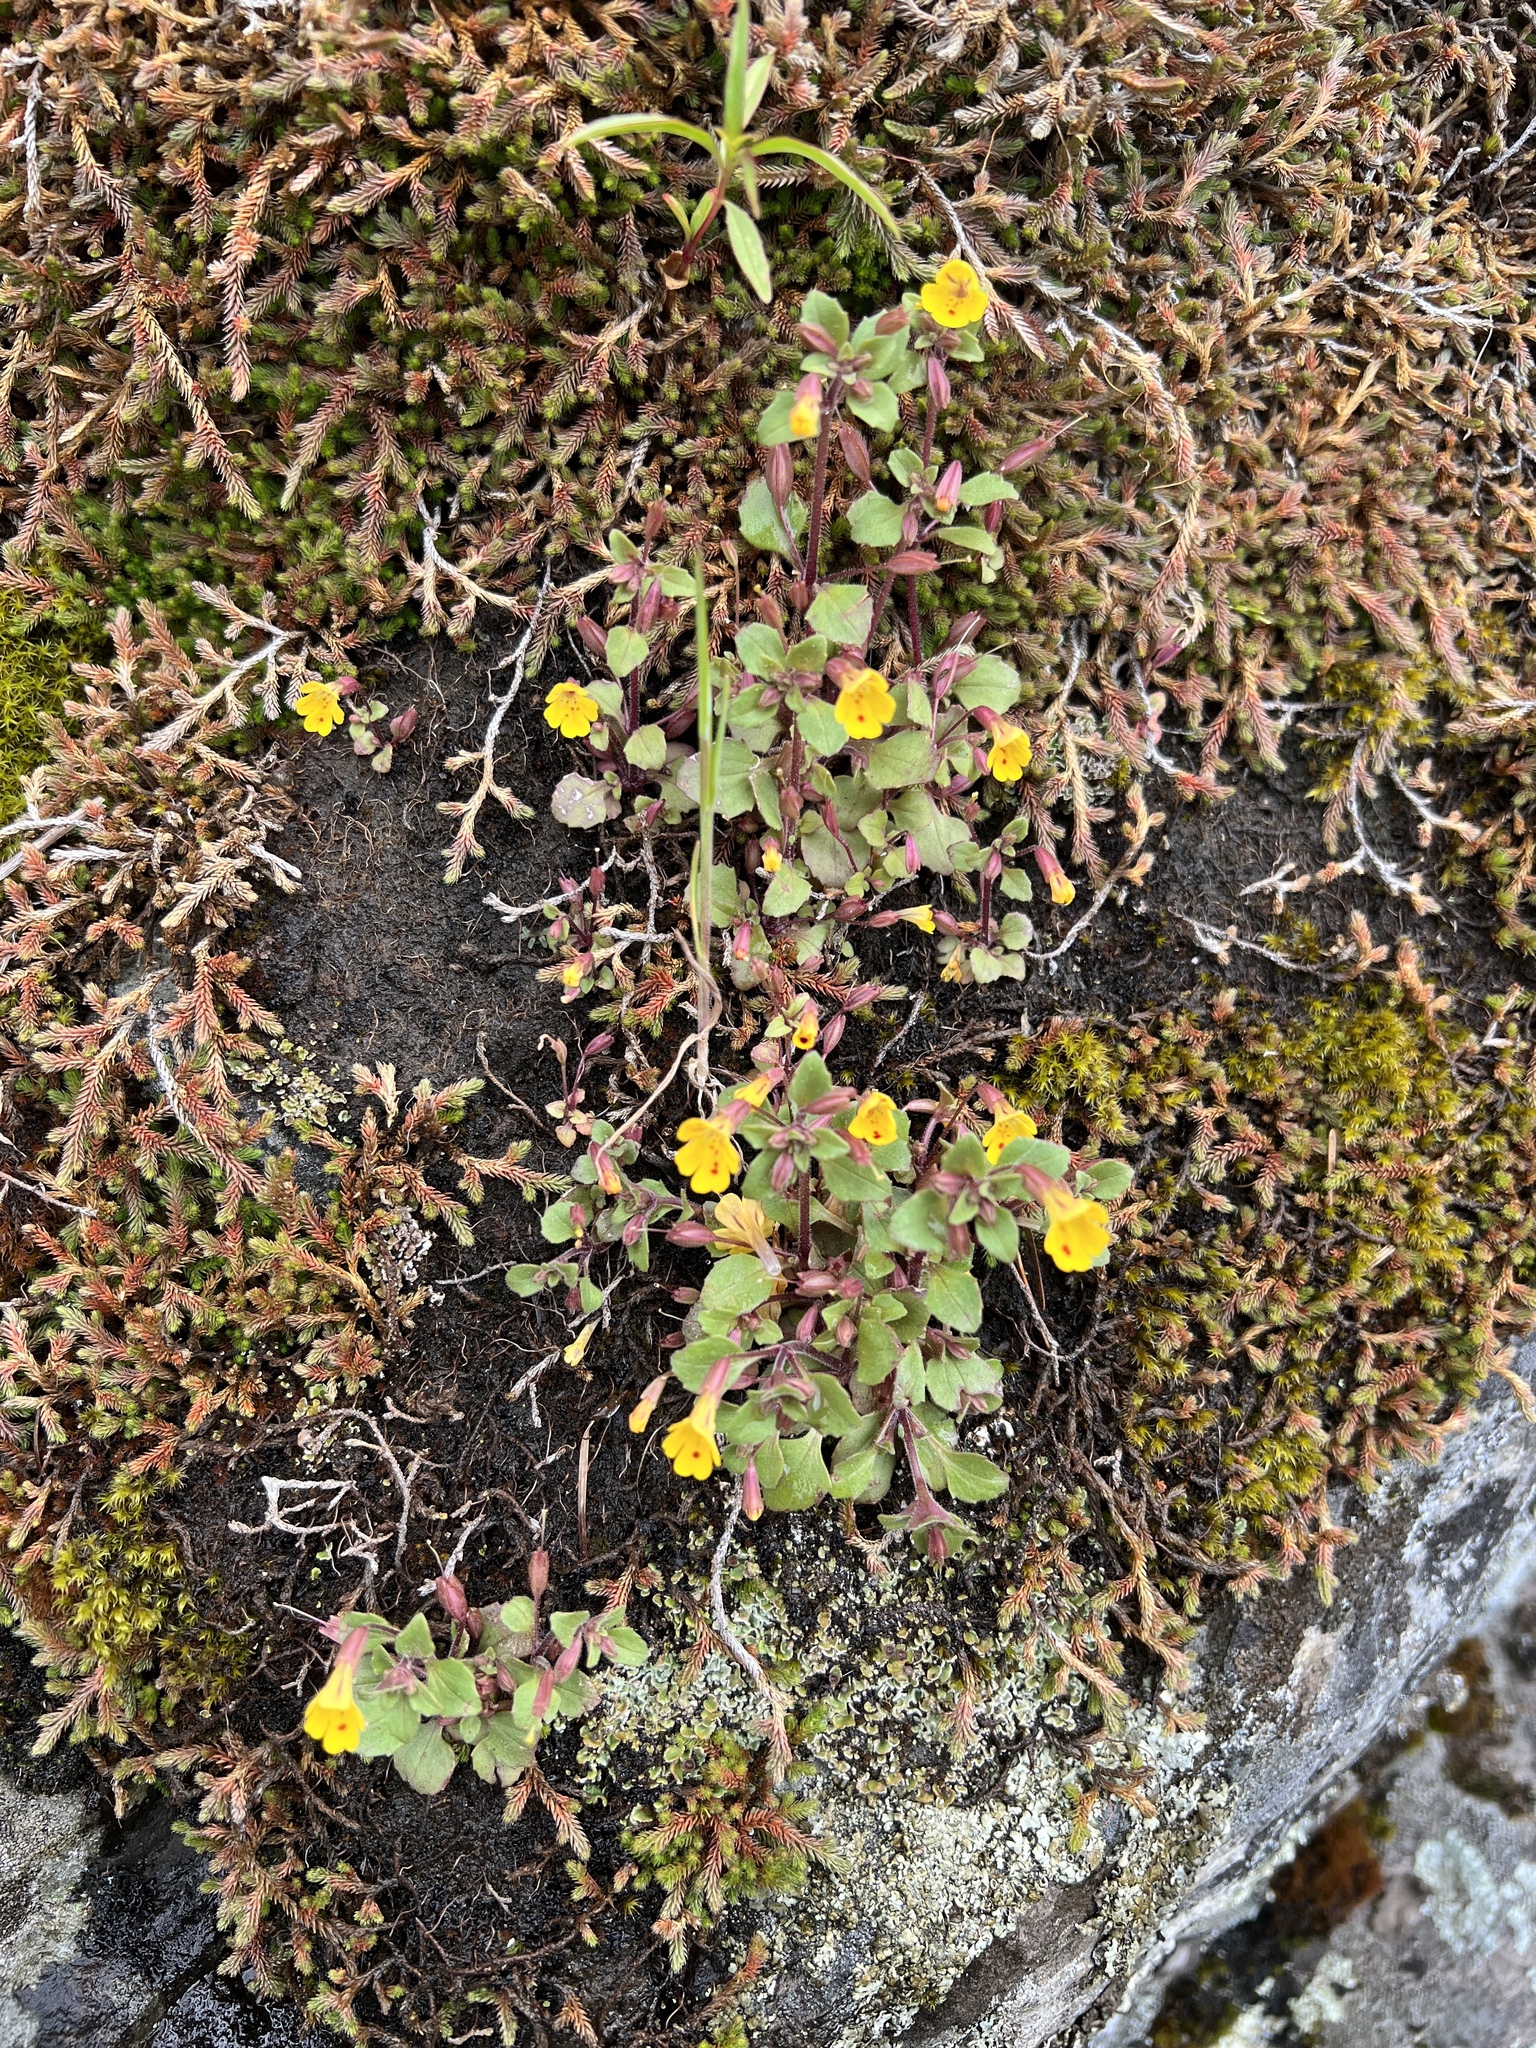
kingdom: Plantae
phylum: Tracheophyta
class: Magnoliopsida
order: Lamiales
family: Phrymaceae
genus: Erythranthe
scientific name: Erythranthe alsinoides
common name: Chickweed monkeyflower
